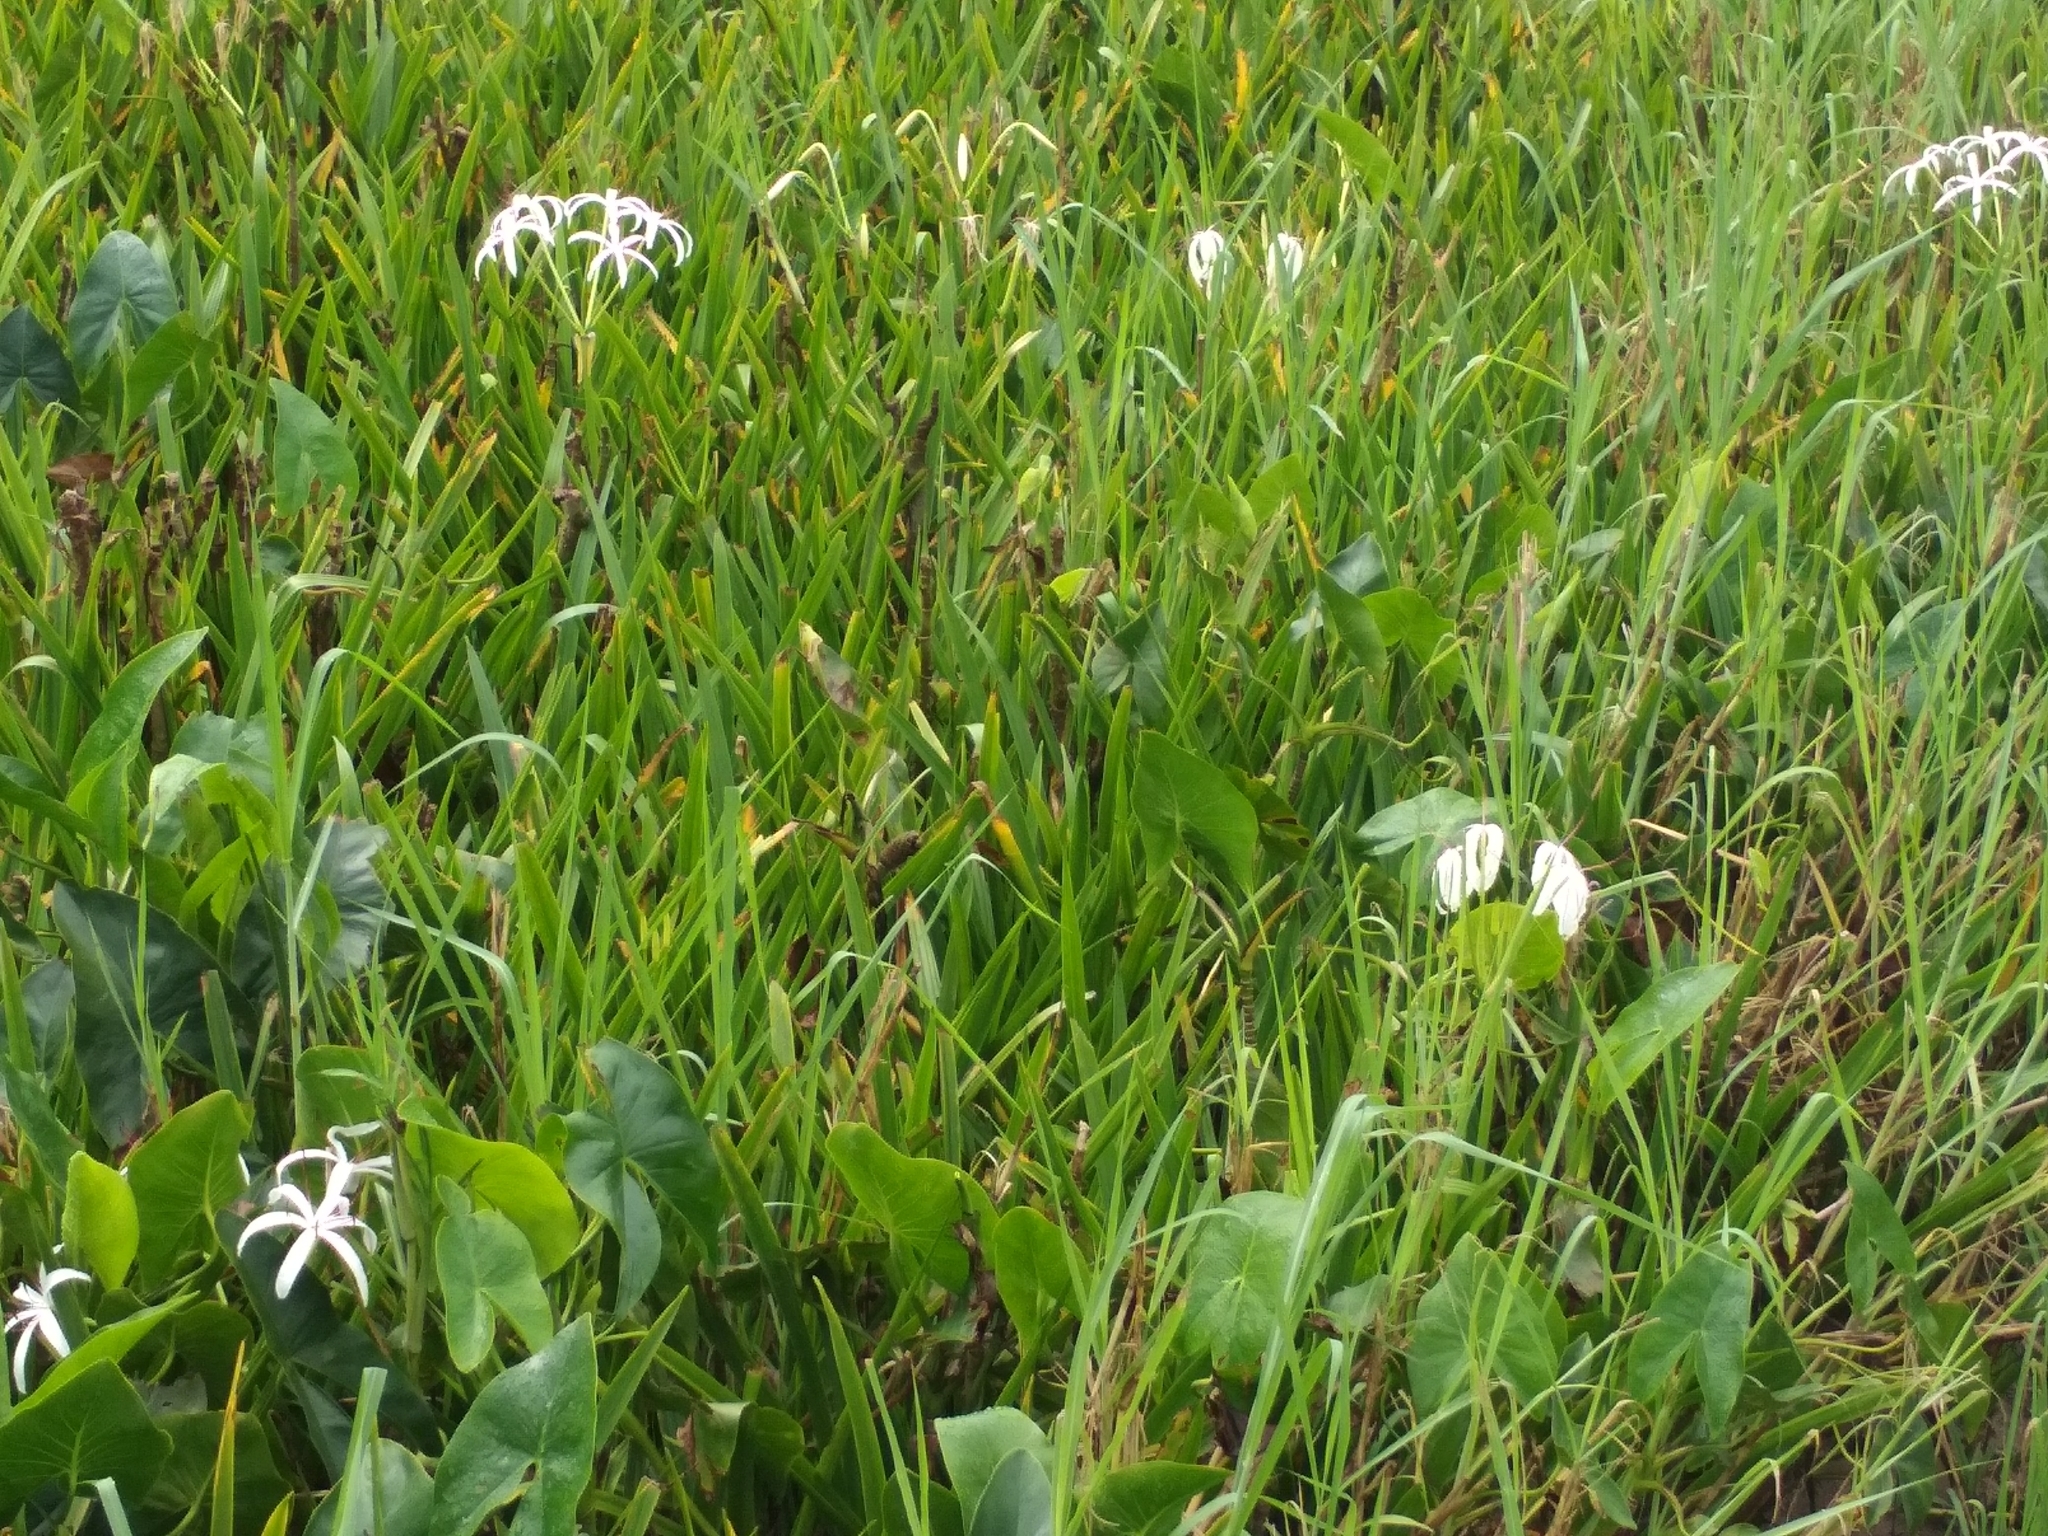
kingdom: Plantae
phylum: Tracheophyta
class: Liliopsida
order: Asparagales
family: Amaryllidaceae
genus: Crinum
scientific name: Crinum americanum
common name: Florida swamp-lily
